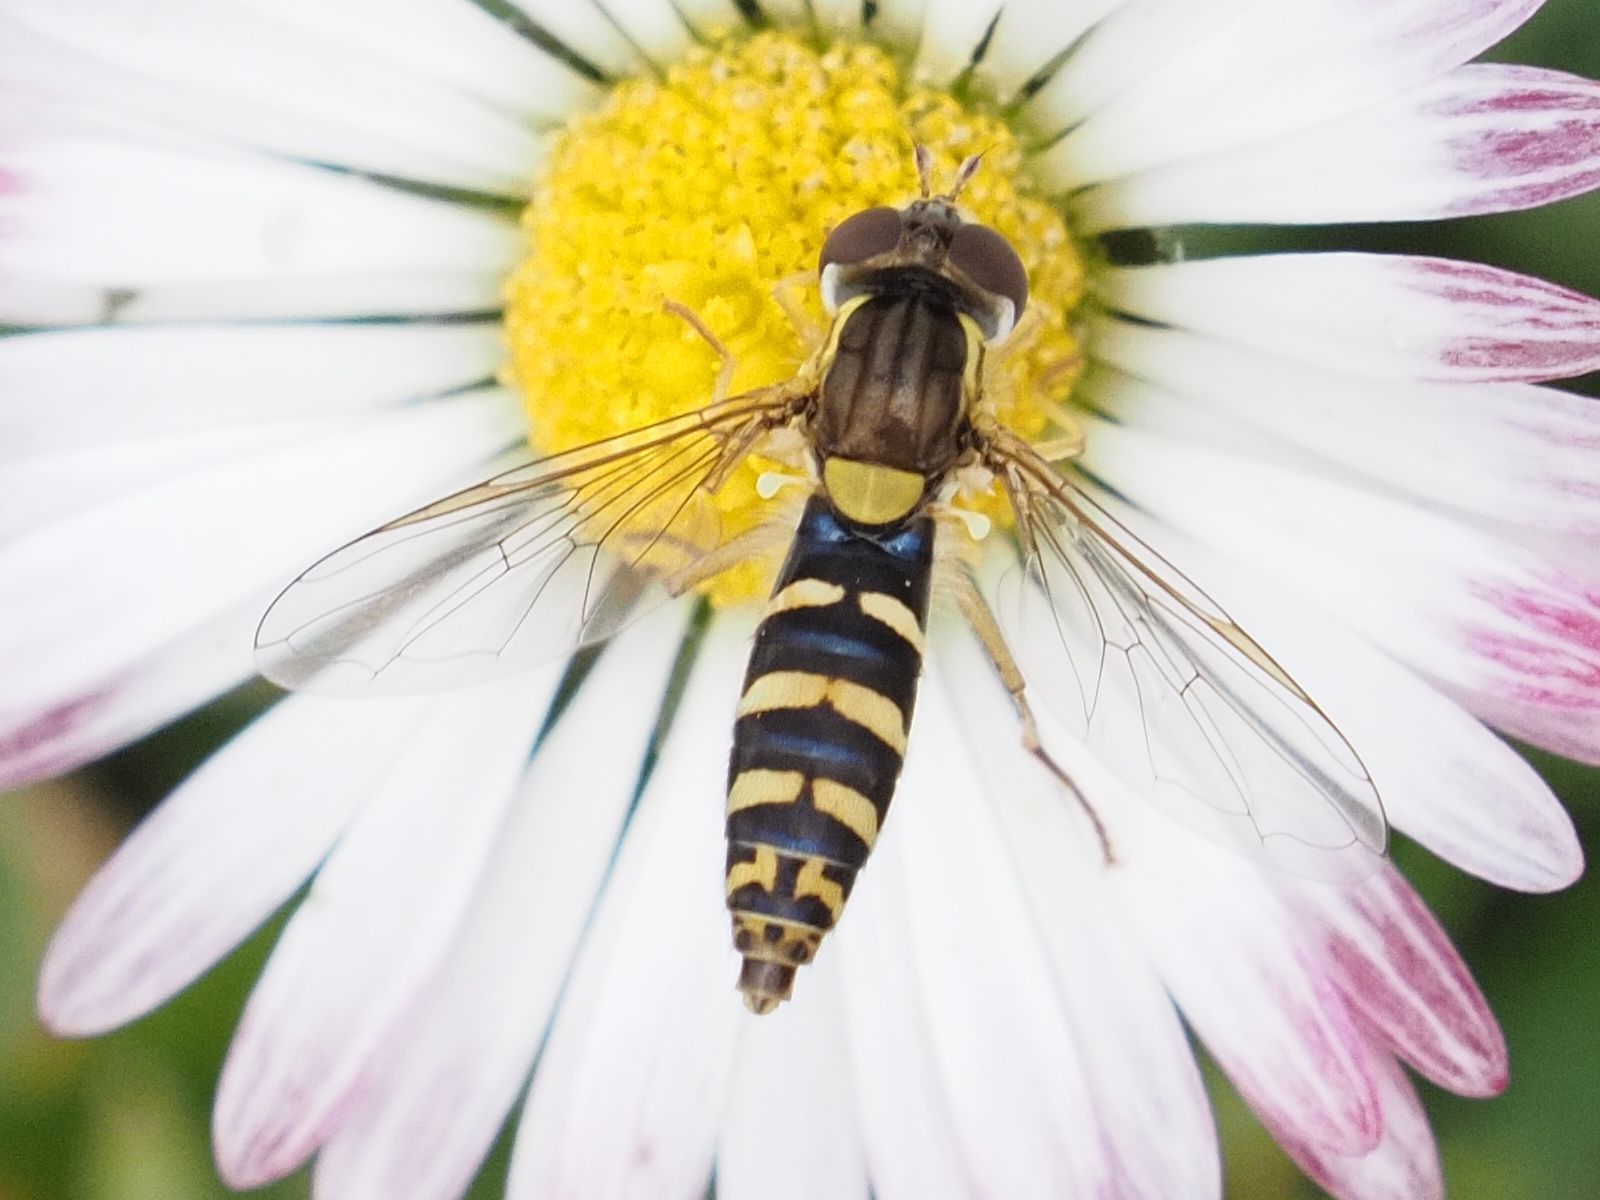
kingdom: Animalia
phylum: Arthropoda
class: Insecta
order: Diptera
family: Syrphidae
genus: Sphaerophoria
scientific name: Sphaerophoria
